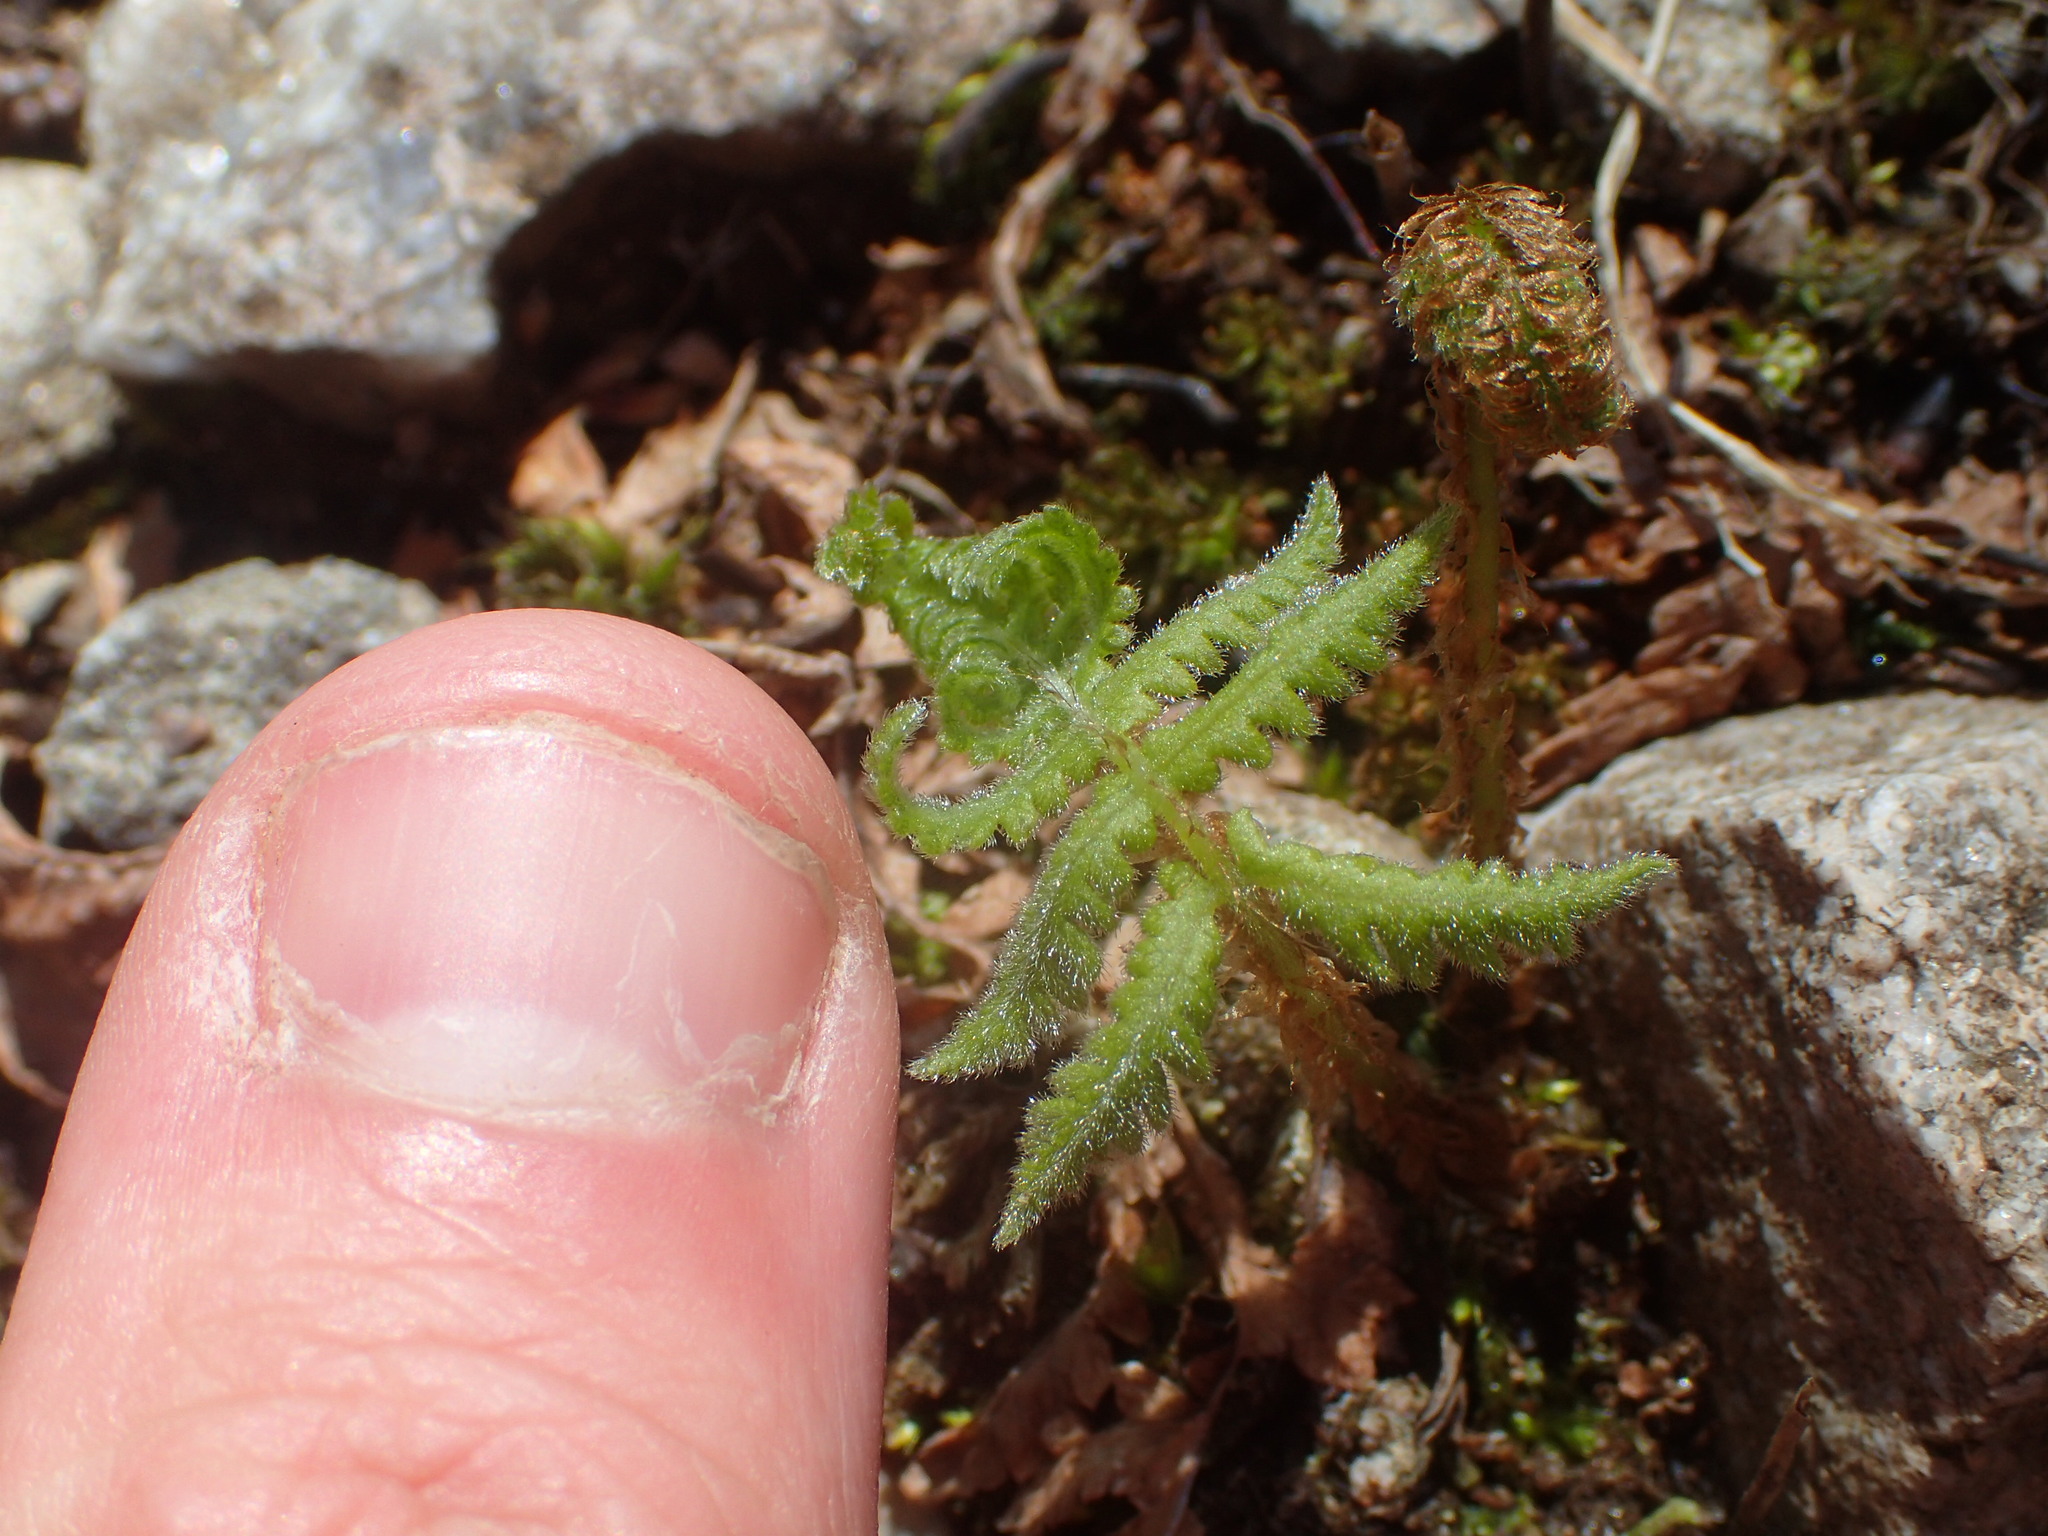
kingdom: Plantae
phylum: Tracheophyta
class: Polypodiopsida
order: Polypodiales
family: Thelypteridaceae
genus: Phegopteris
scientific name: Phegopteris connectilis
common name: Beech fern
